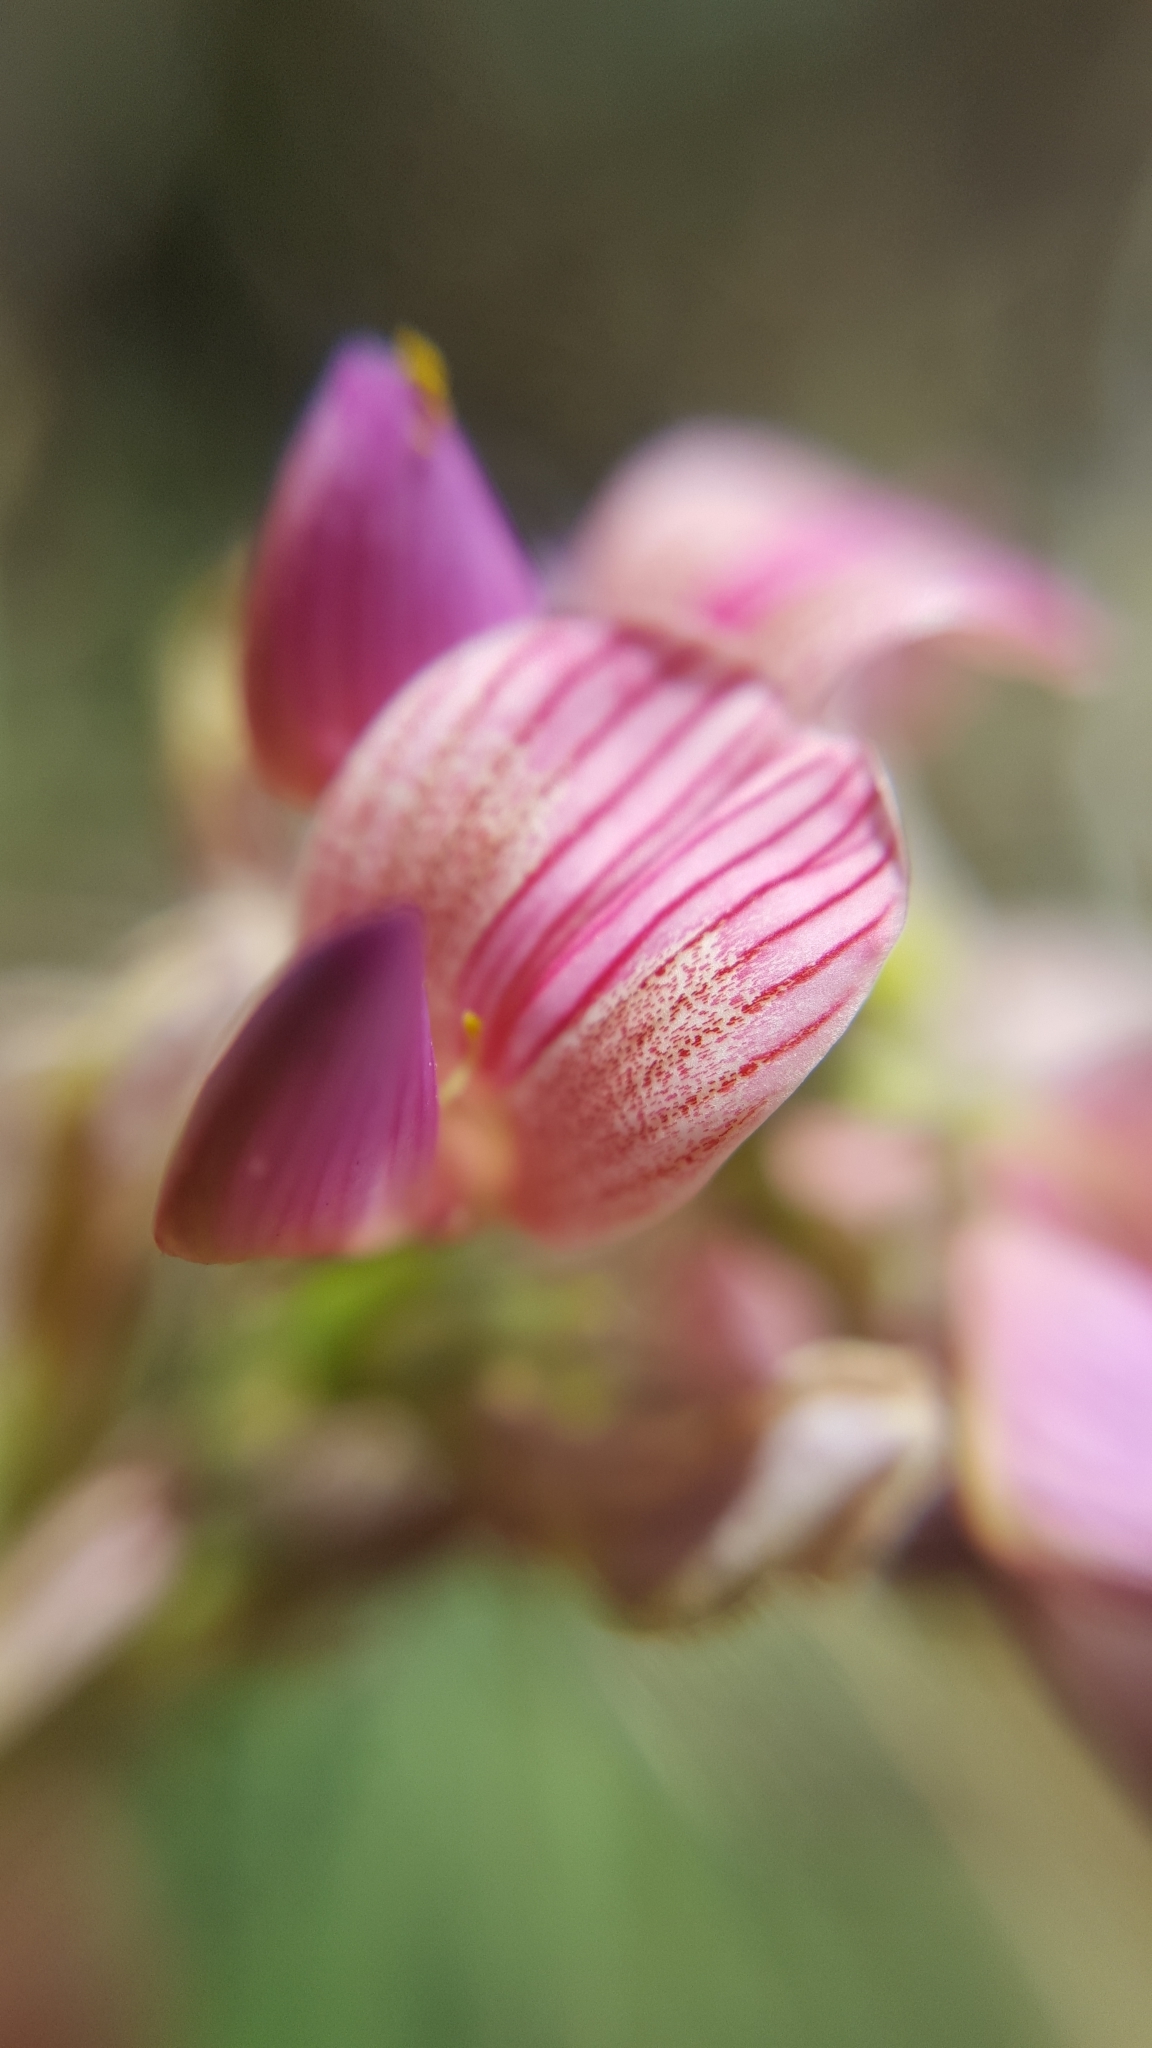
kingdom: Plantae
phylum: Tracheophyta
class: Magnoliopsida
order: Fabales
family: Fabaceae
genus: Onobrychis
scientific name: Onobrychis viciifolia
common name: Sainfoin
